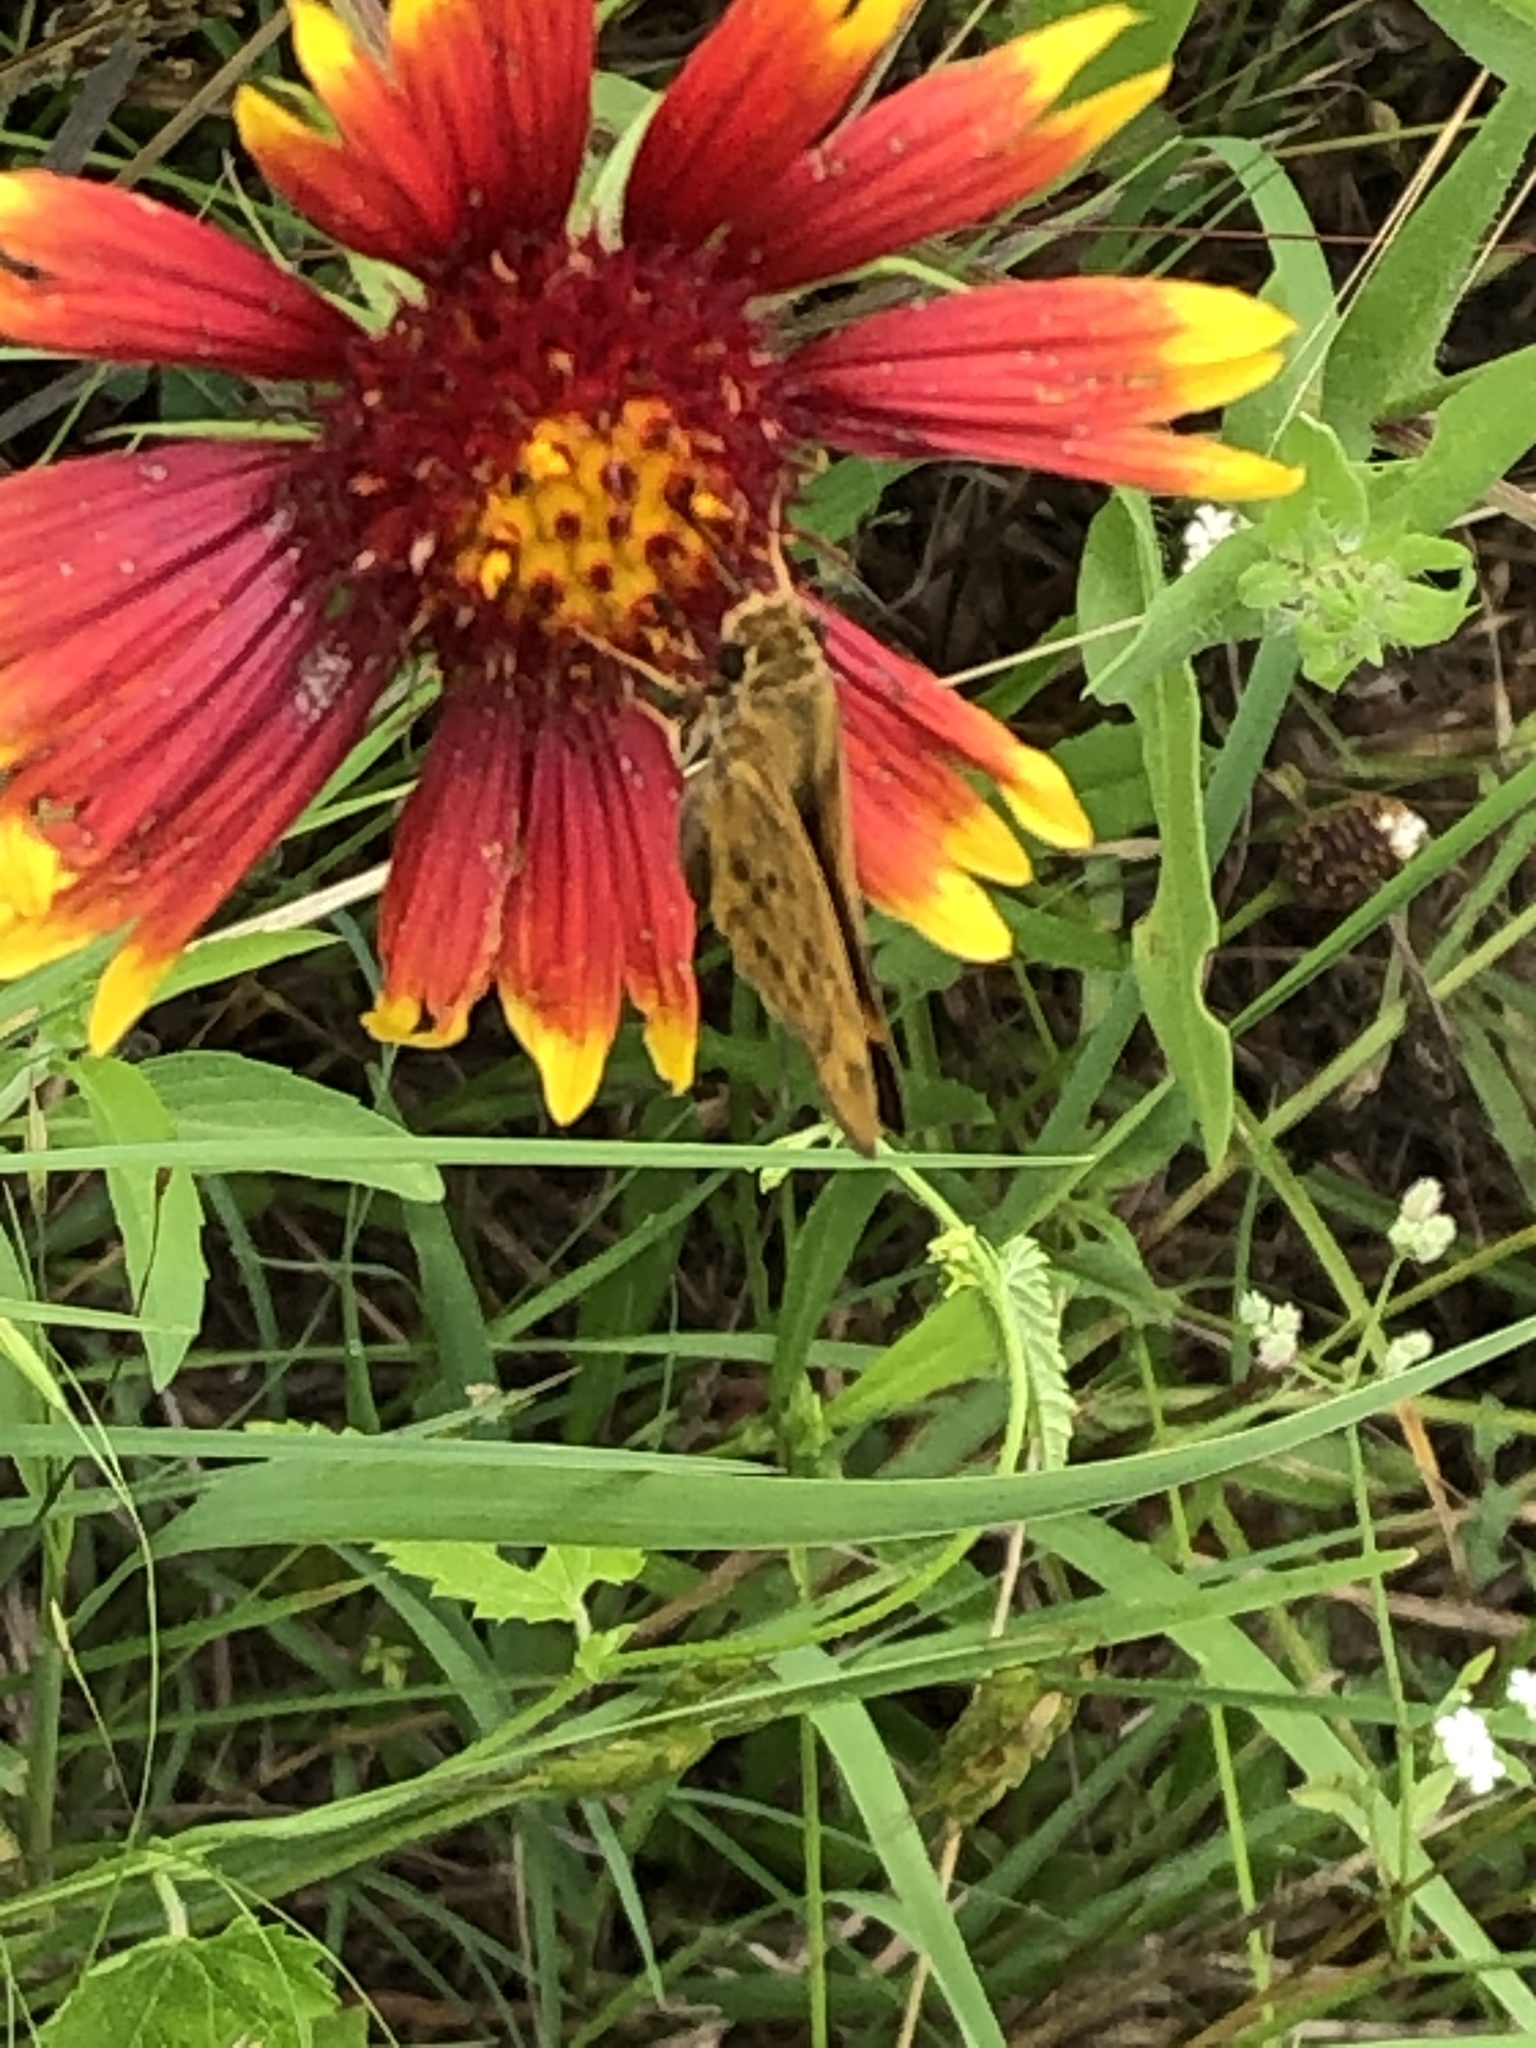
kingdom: Animalia
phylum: Arthropoda
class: Insecta
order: Lepidoptera
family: Hesperiidae
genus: Hylephila
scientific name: Hylephila phyleus
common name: Fiery skipper
